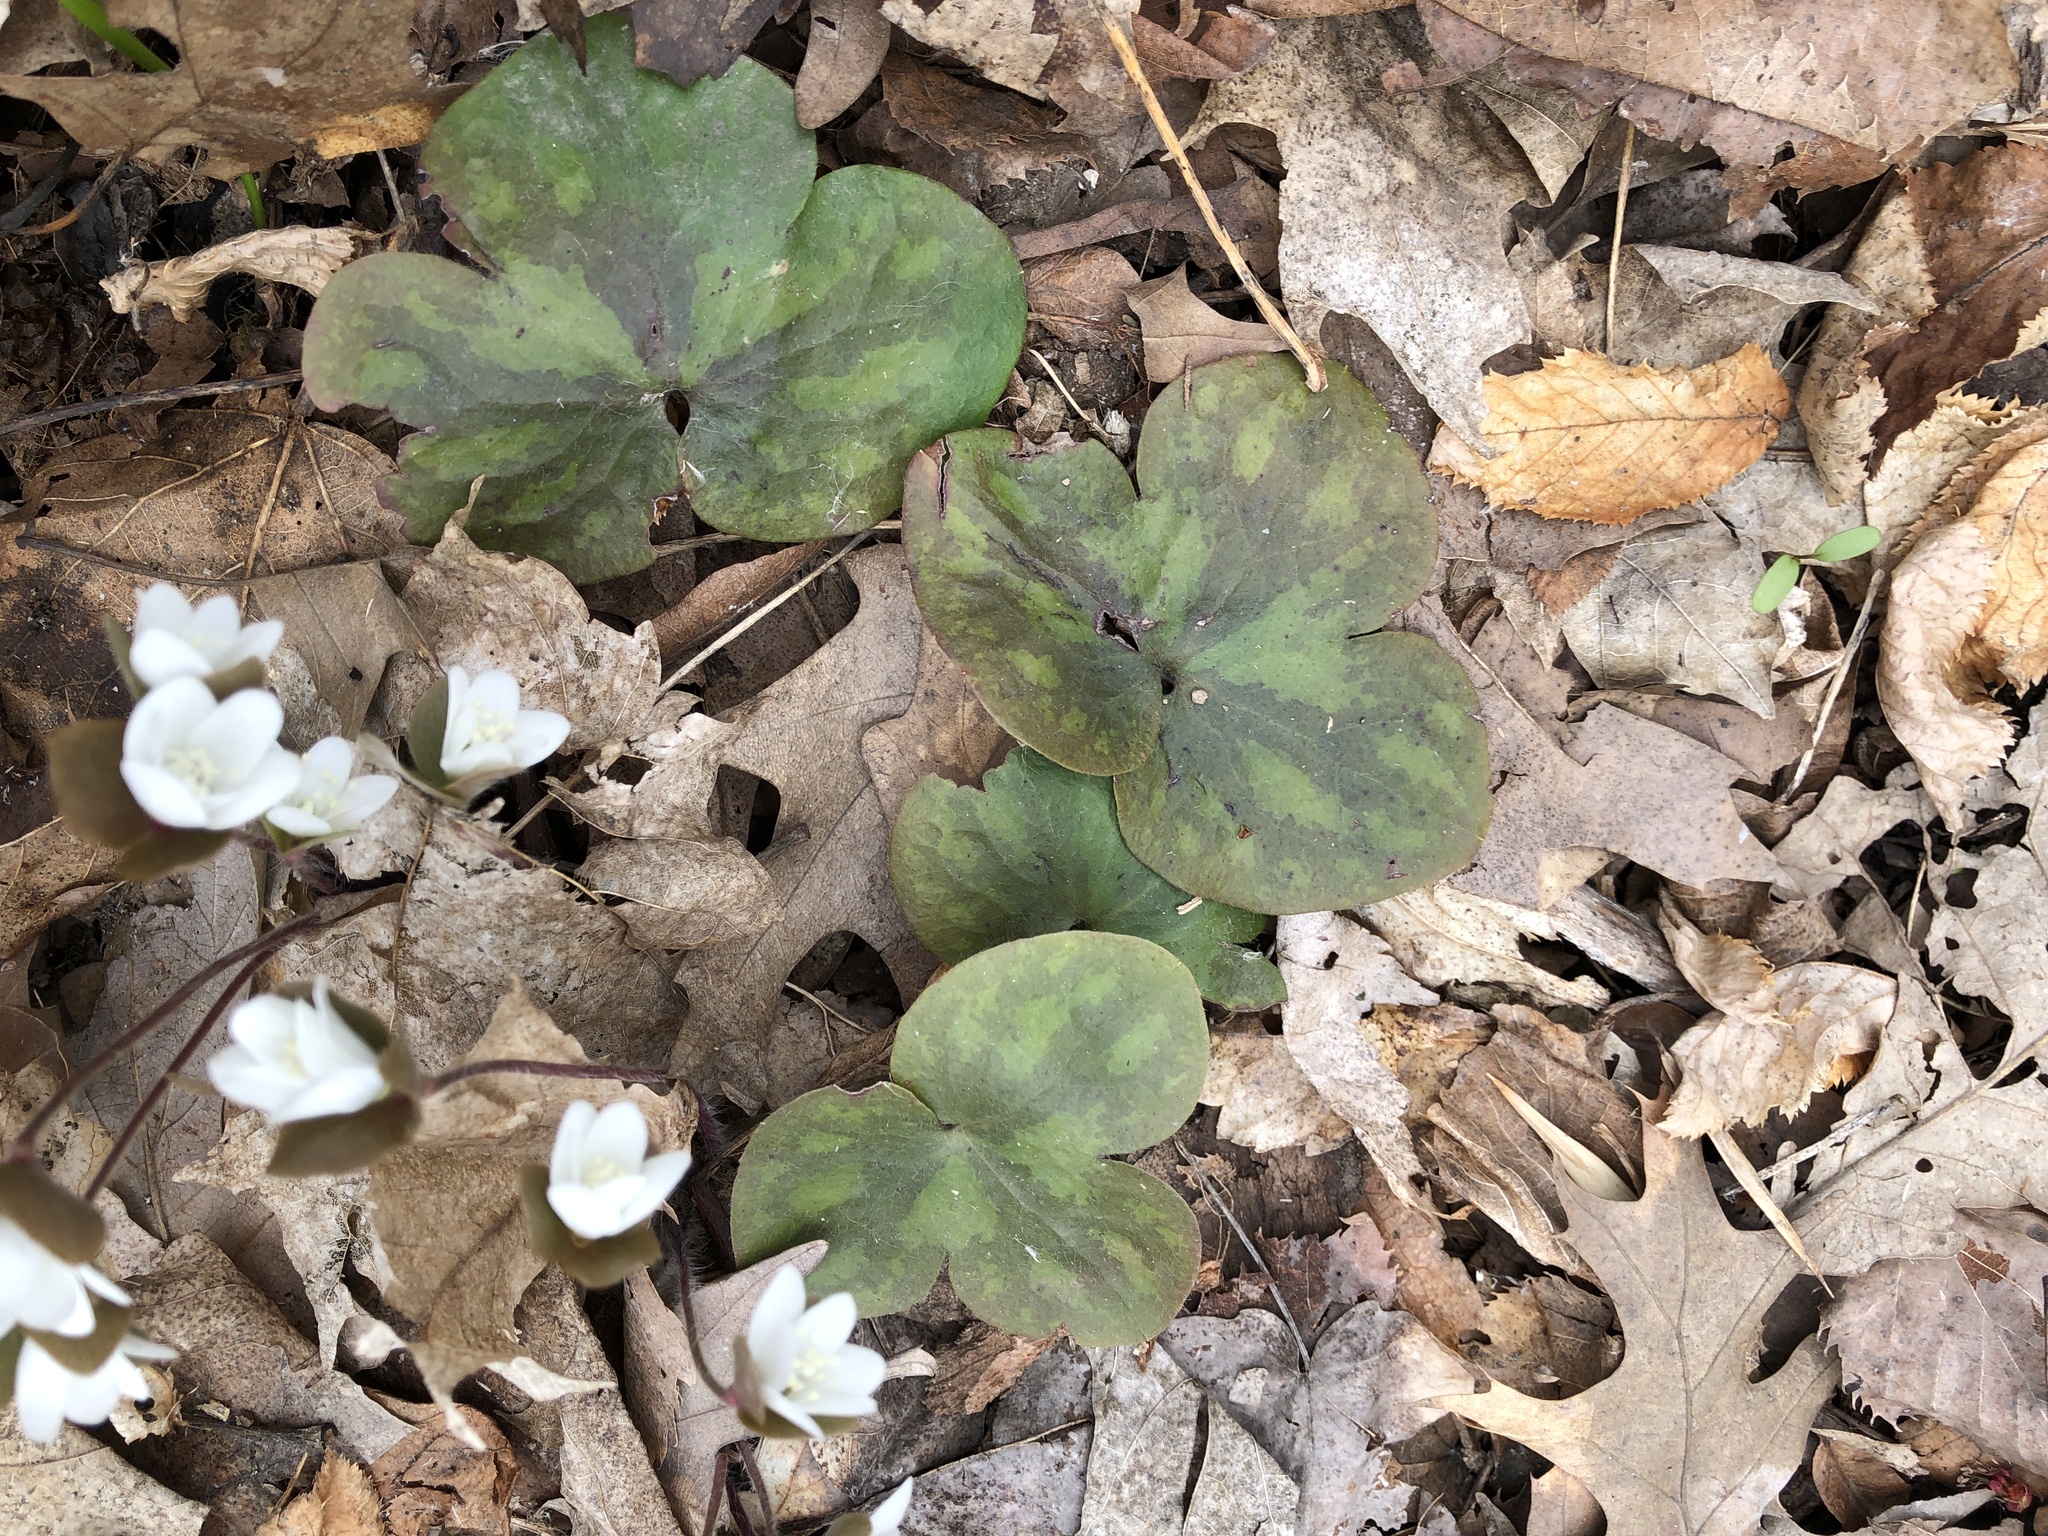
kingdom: Plantae
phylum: Tracheophyta
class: Magnoliopsida
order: Ranunculales
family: Ranunculaceae
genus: Hepatica
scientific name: Hepatica americana
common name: American hepatica
